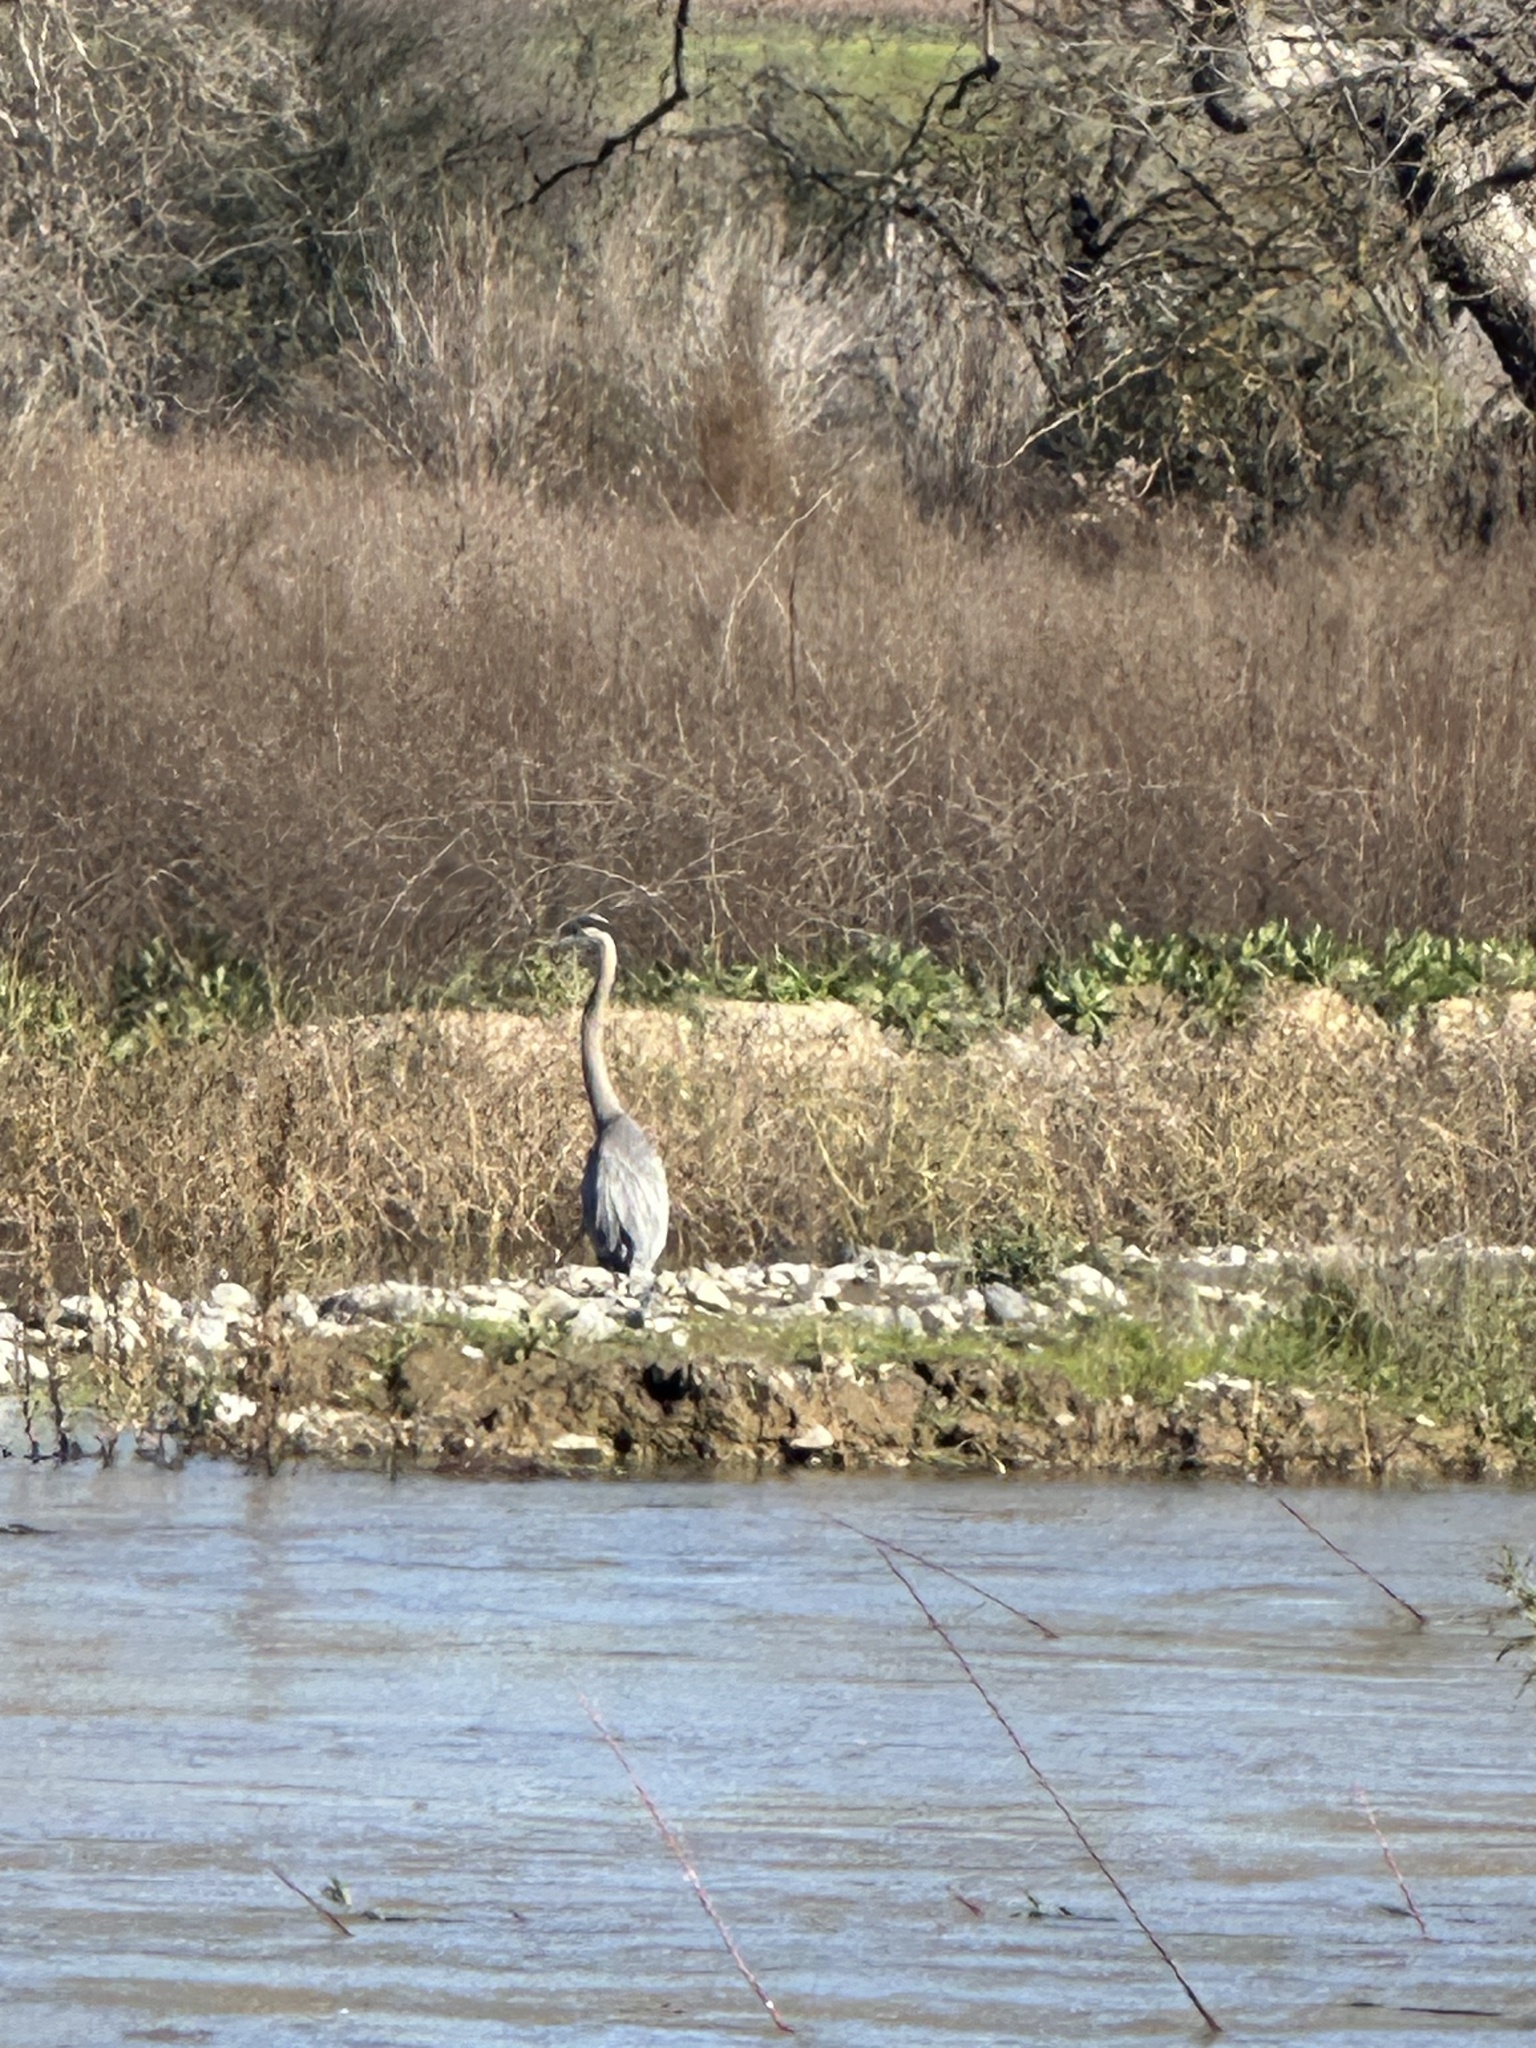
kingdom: Animalia
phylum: Chordata
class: Aves
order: Pelecaniformes
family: Ardeidae
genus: Ardea
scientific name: Ardea herodias
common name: Great blue heron
